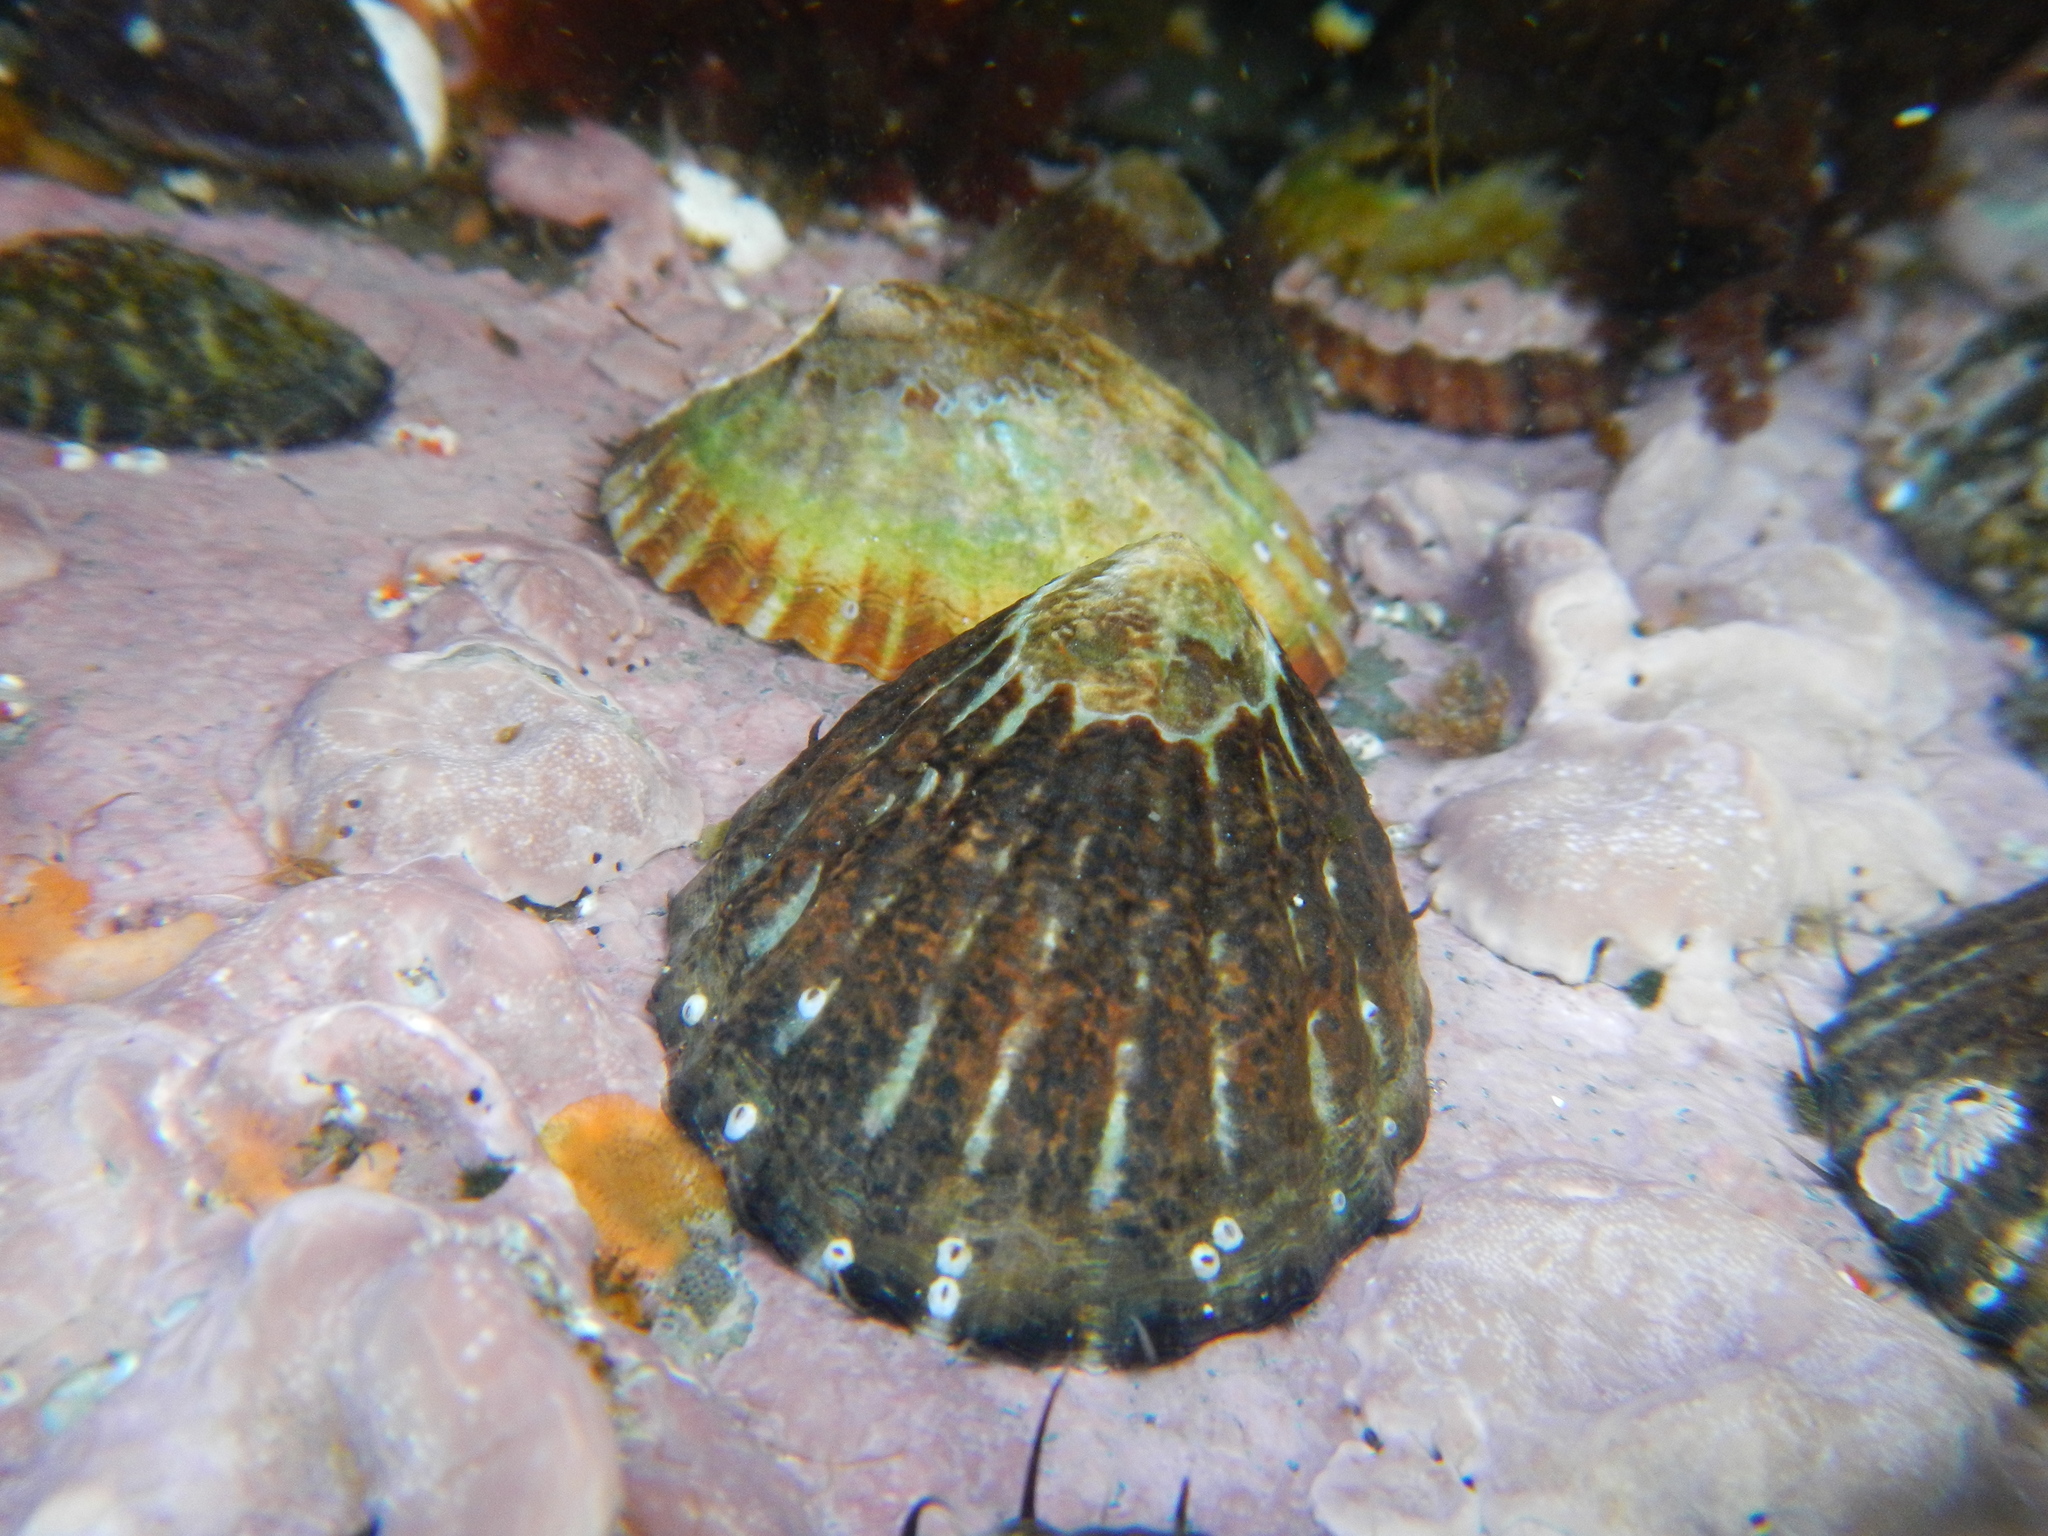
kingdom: Animalia
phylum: Mollusca
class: Gastropoda
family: Nacellidae
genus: Nacella
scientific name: Nacella magellanica
